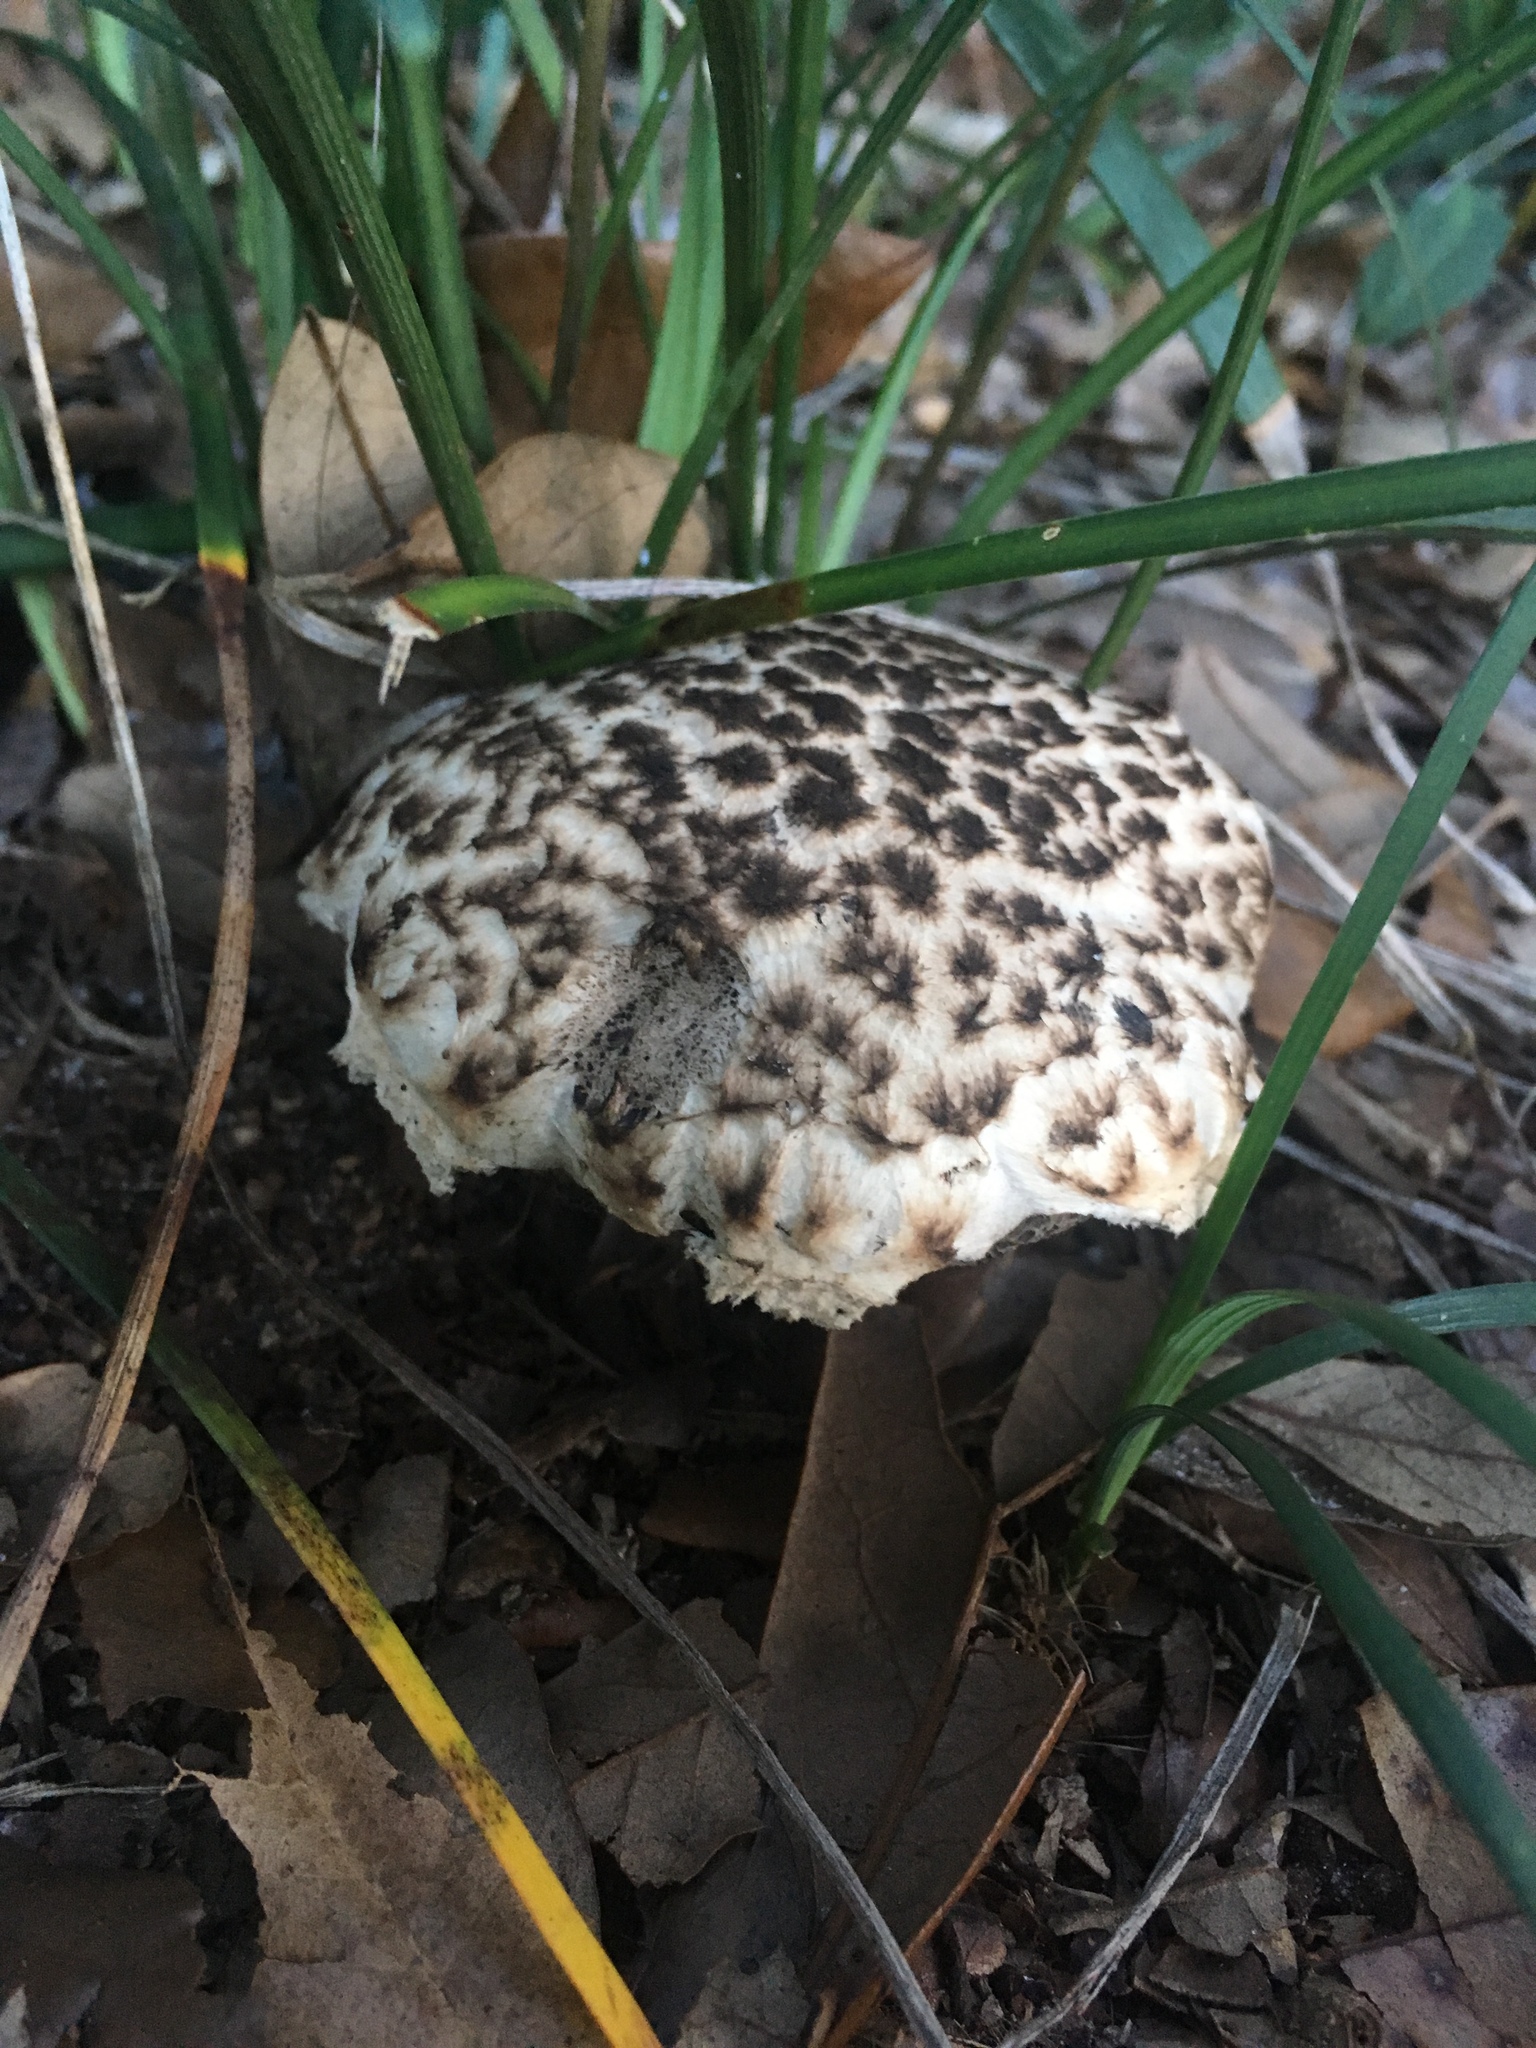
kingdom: Fungi
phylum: Basidiomycota
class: Agaricomycetes
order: Boletales
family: Boletaceae
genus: Strobilomyces
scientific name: Strobilomyces strobilaceus
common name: Old man of the woods
